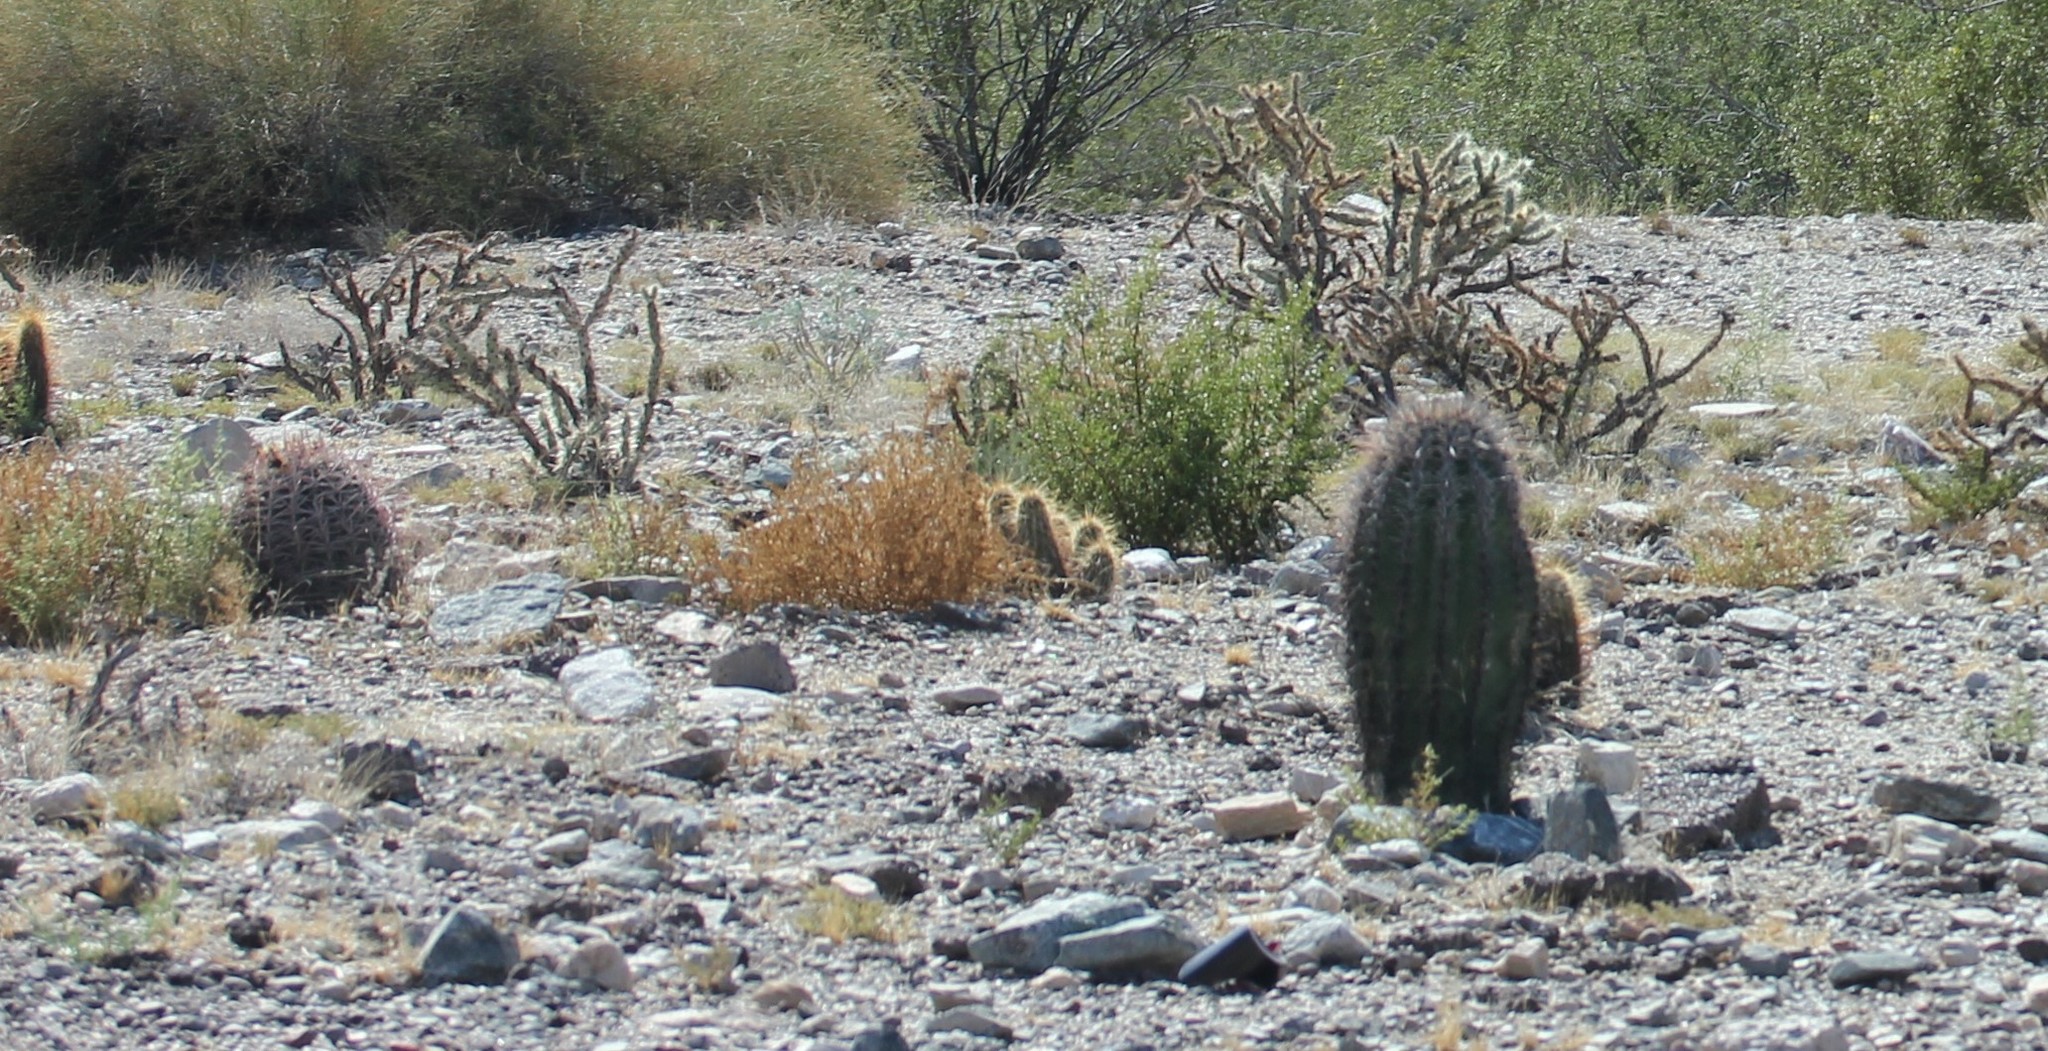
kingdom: Plantae
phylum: Tracheophyta
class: Magnoliopsida
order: Caryophyllales
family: Cactaceae
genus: Ferocactus
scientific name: Ferocactus cylindraceus
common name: California barrel cactus
